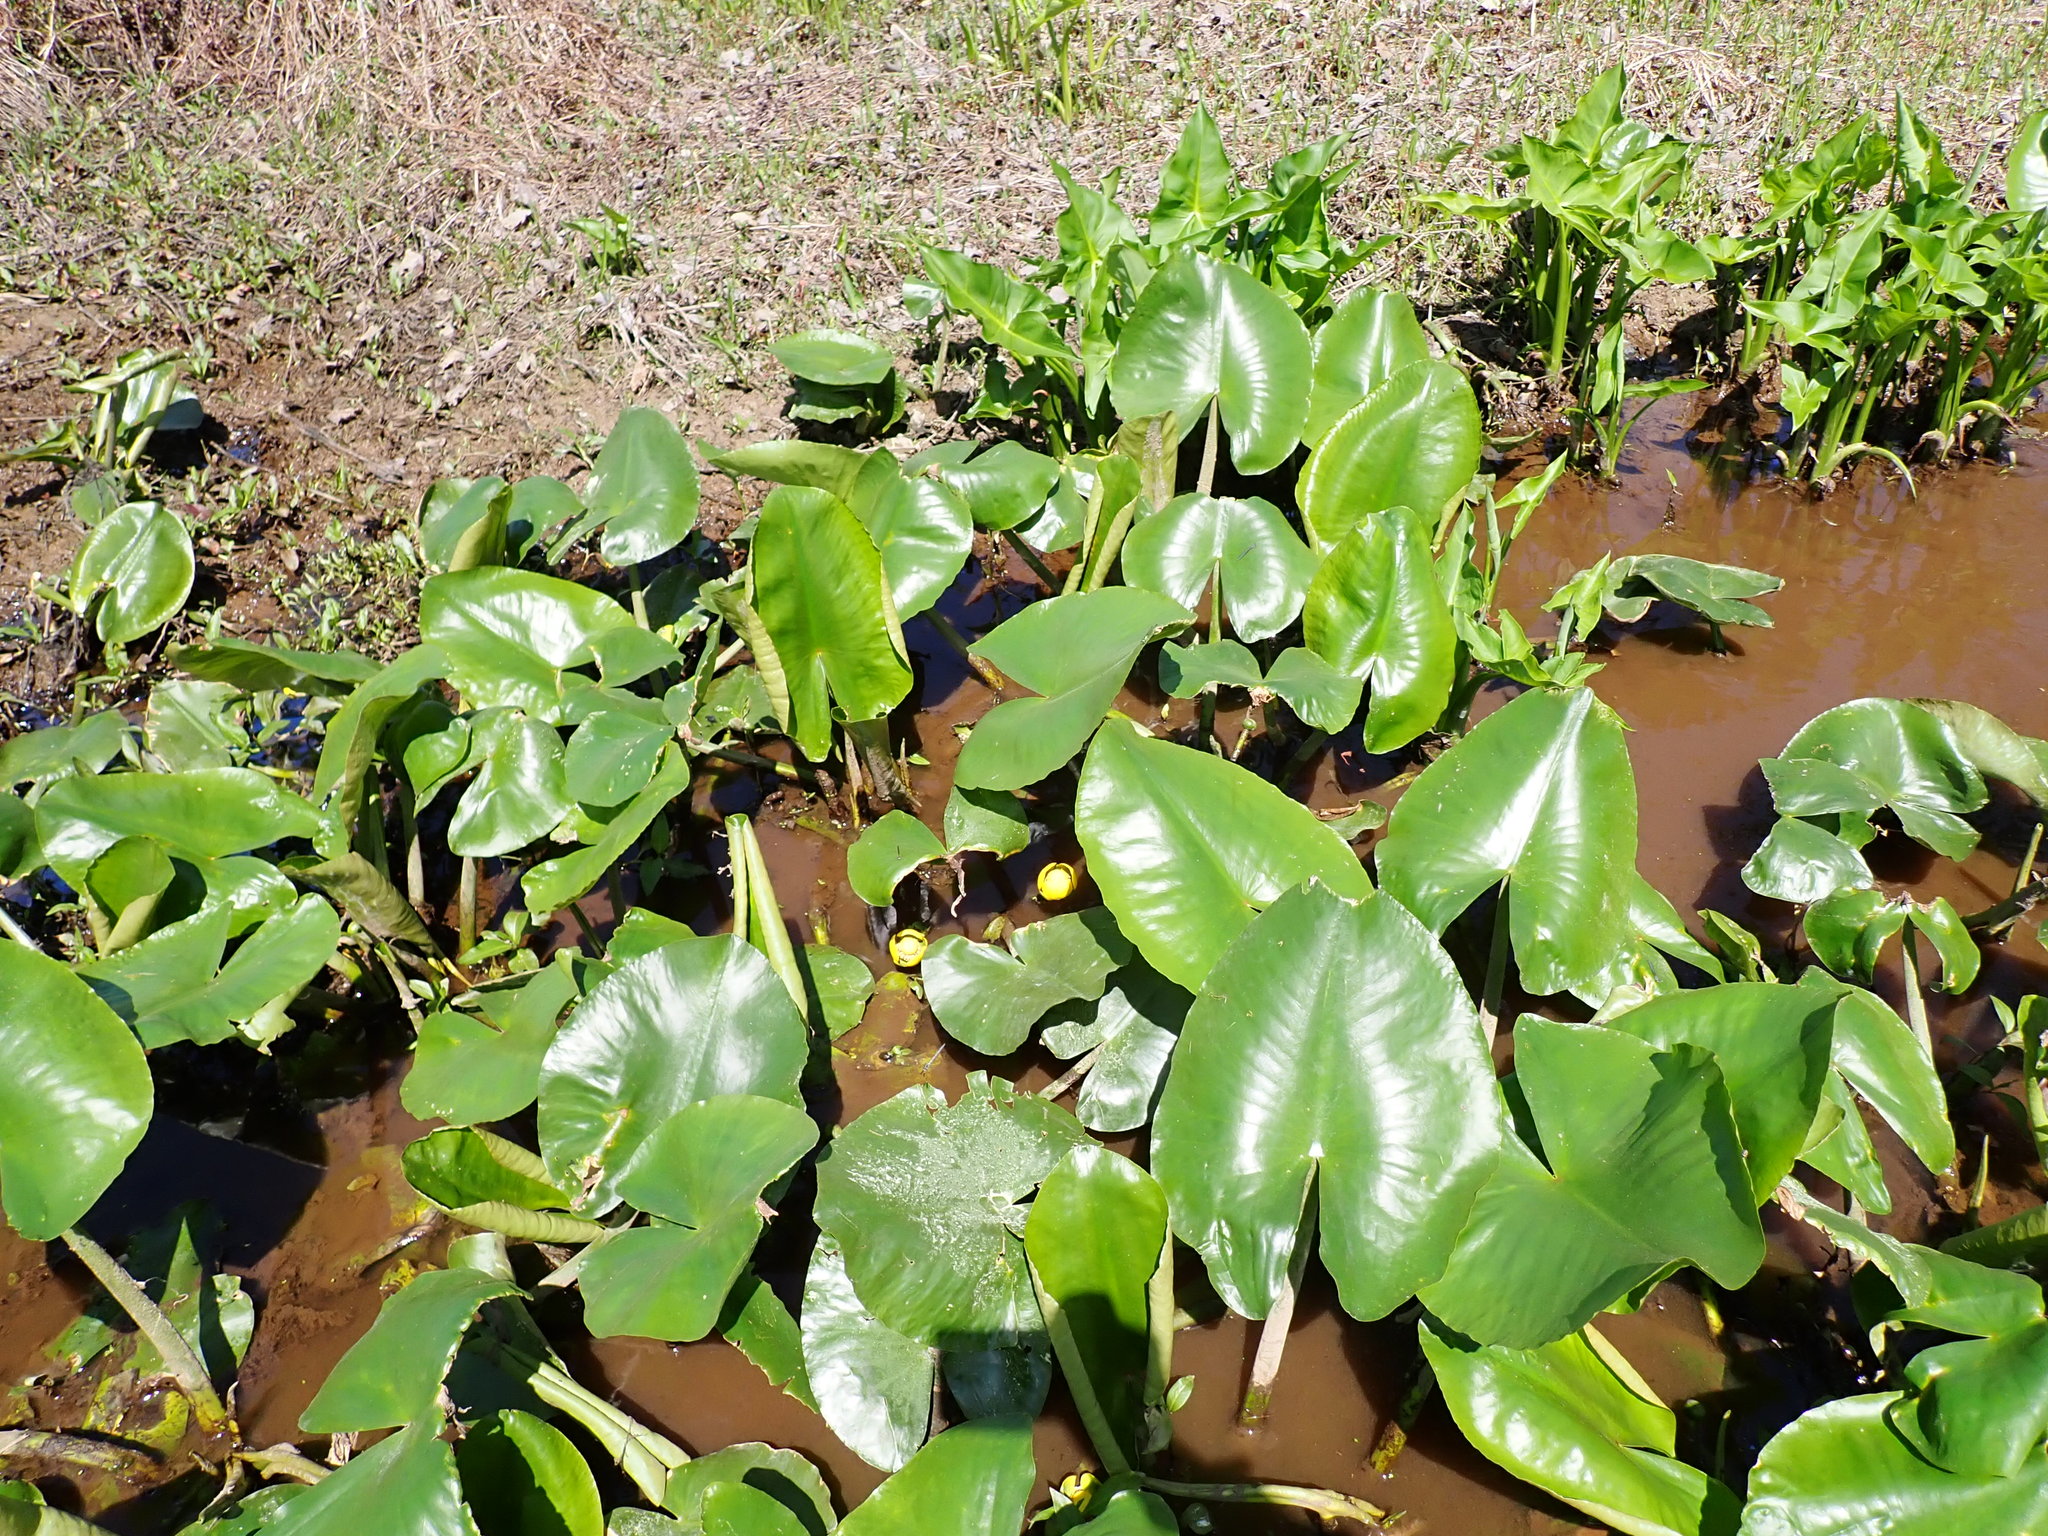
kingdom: Plantae
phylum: Tracheophyta
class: Magnoliopsida
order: Nymphaeales
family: Nymphaeaceae
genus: Nuphar
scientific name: Nuphar advena
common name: Spatter-dock
